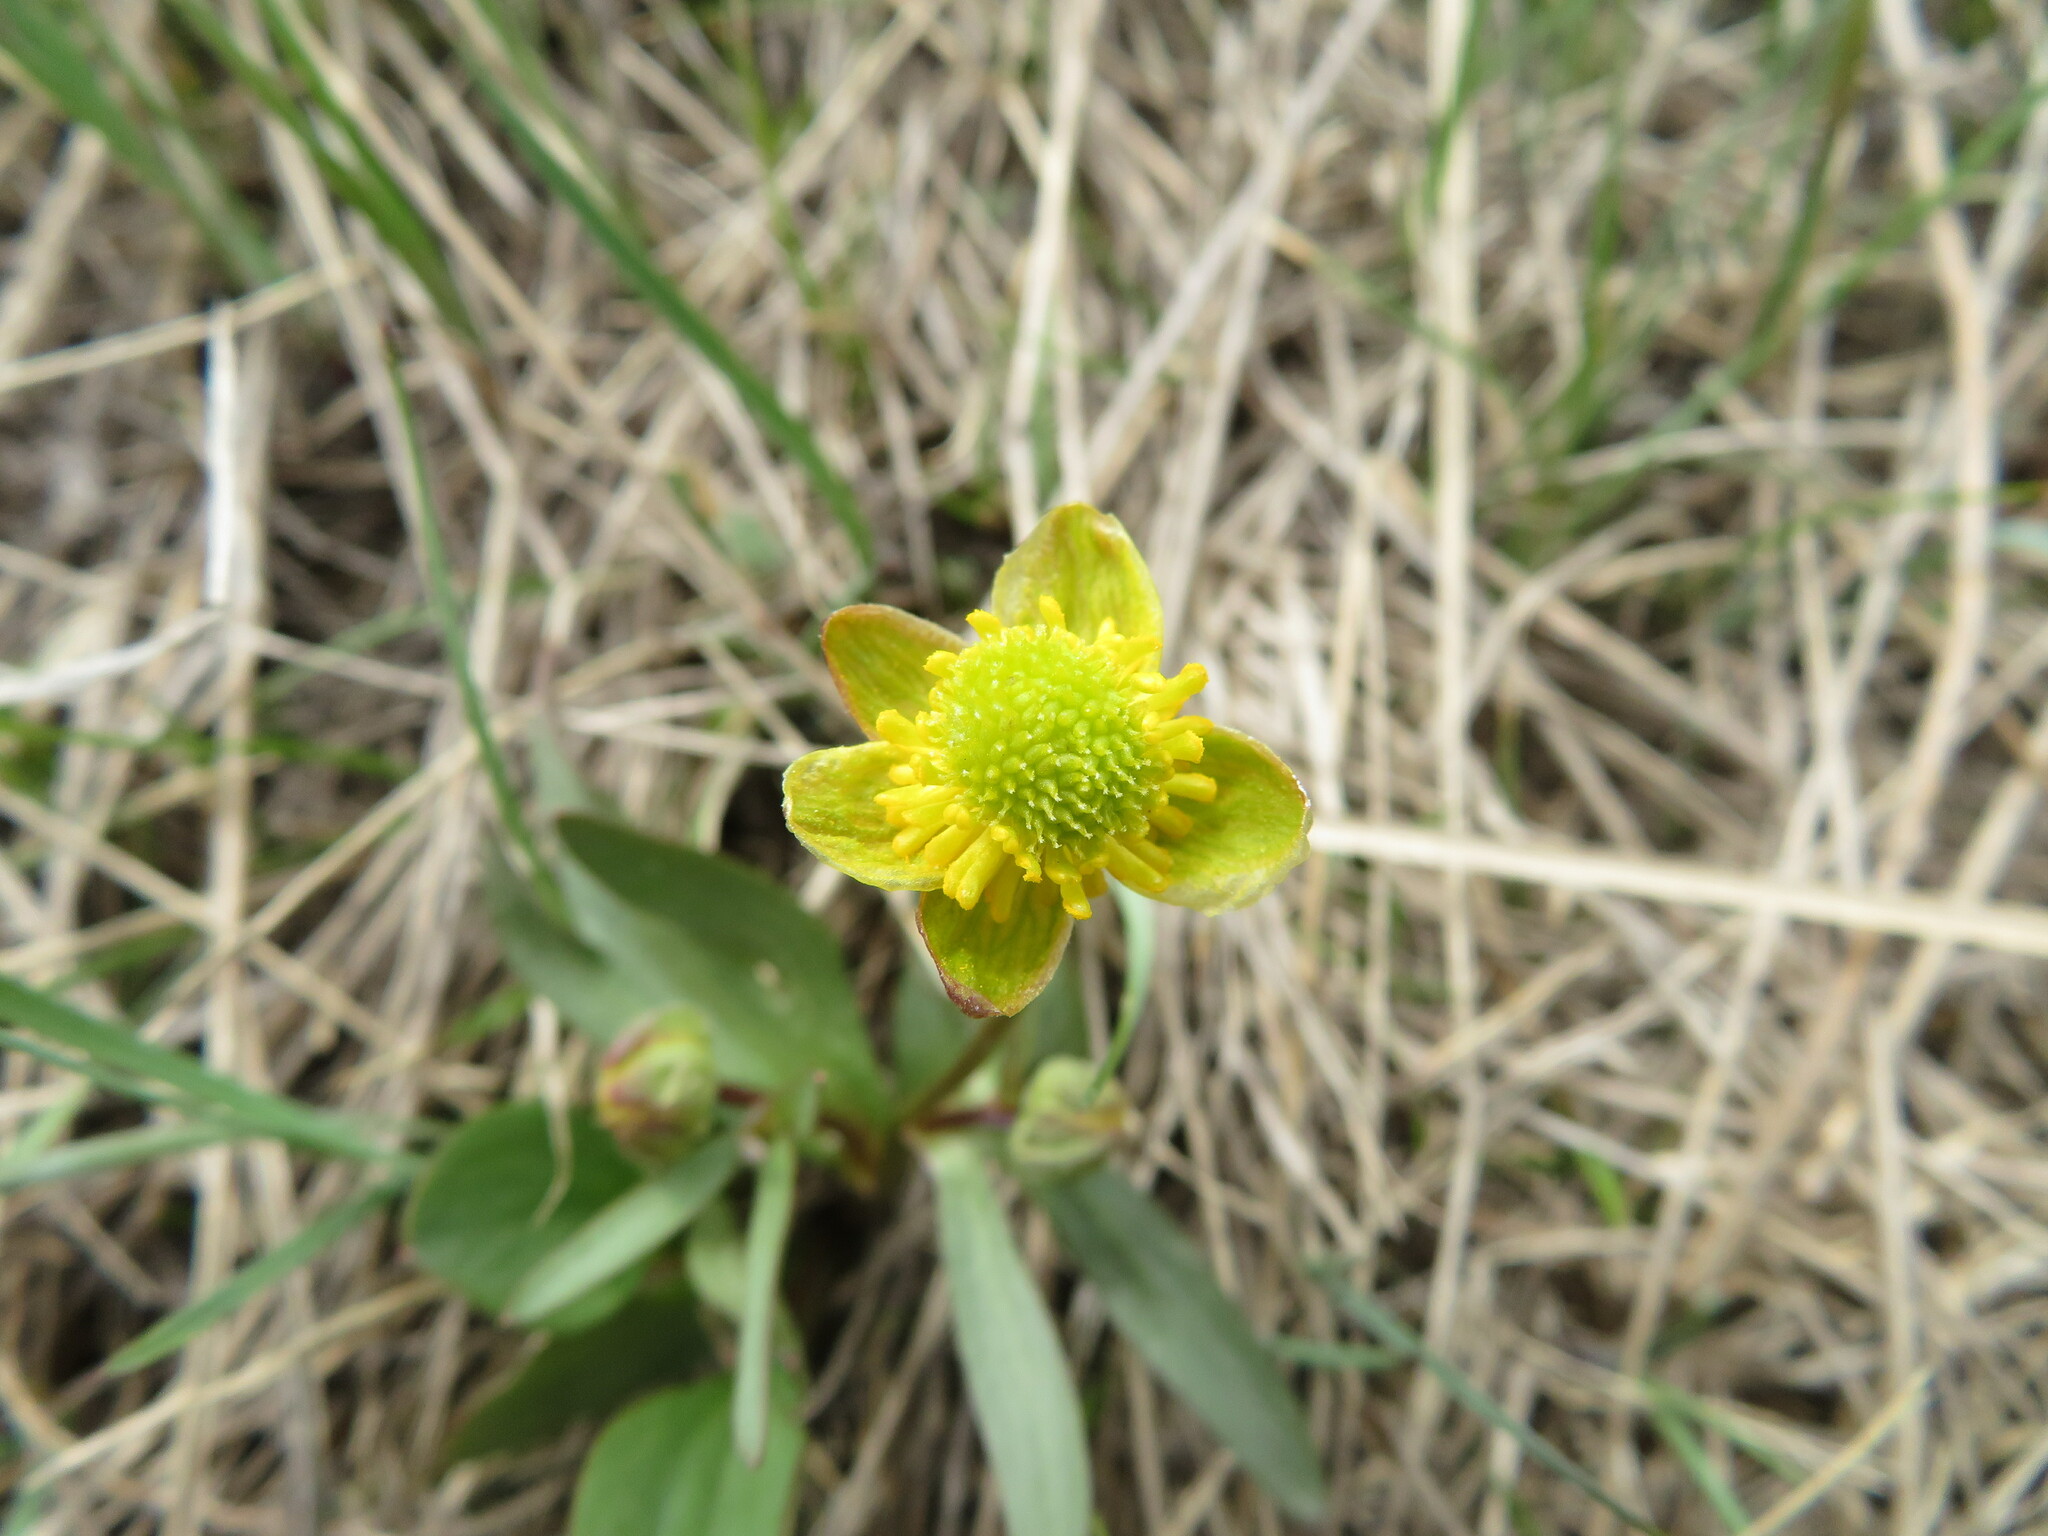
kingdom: Plantae
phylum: Tracheophyta
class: Magnoliopsida
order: Ranunculales
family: Ranunculaceae
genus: Ranunculus
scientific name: Ranunculus glaberrimus
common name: Sagebrush buttercup
